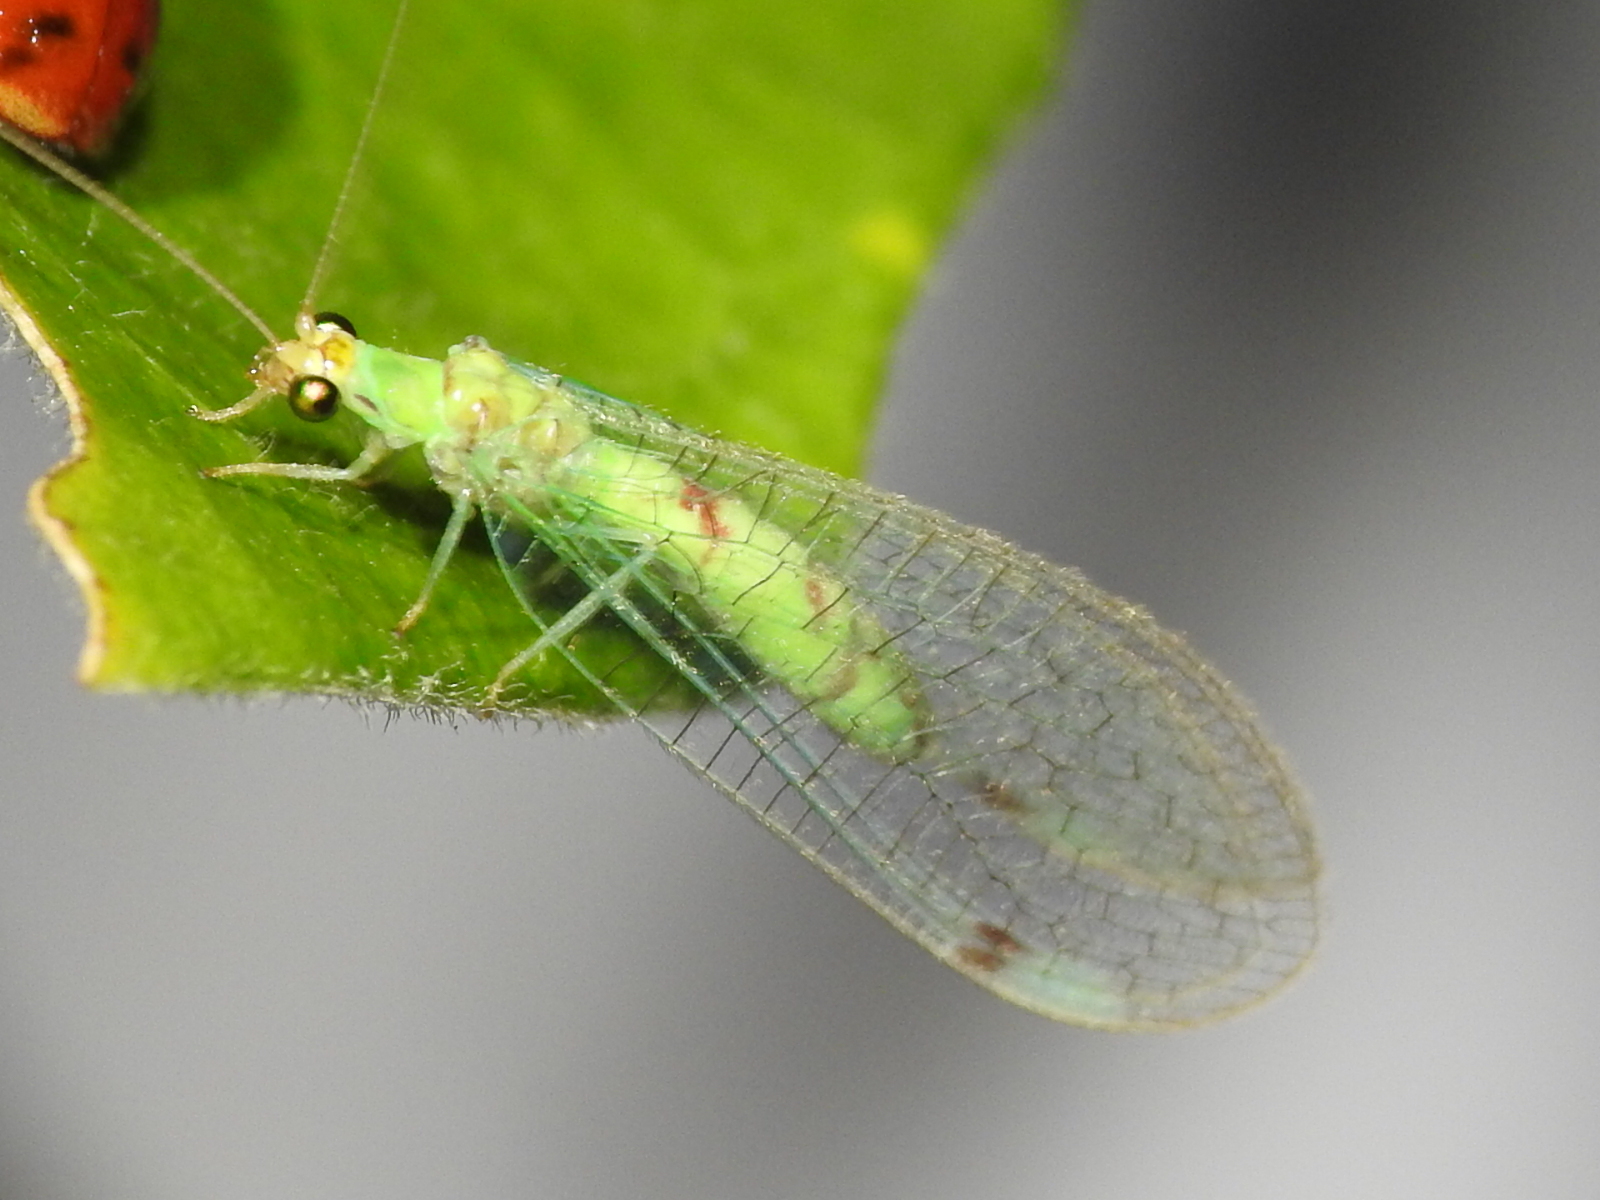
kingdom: Animalia
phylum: Arthropoda
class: Insecta
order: Neuroptera
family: Chrysopidae
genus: Leucochrysa
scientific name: Leucochrysa americana
